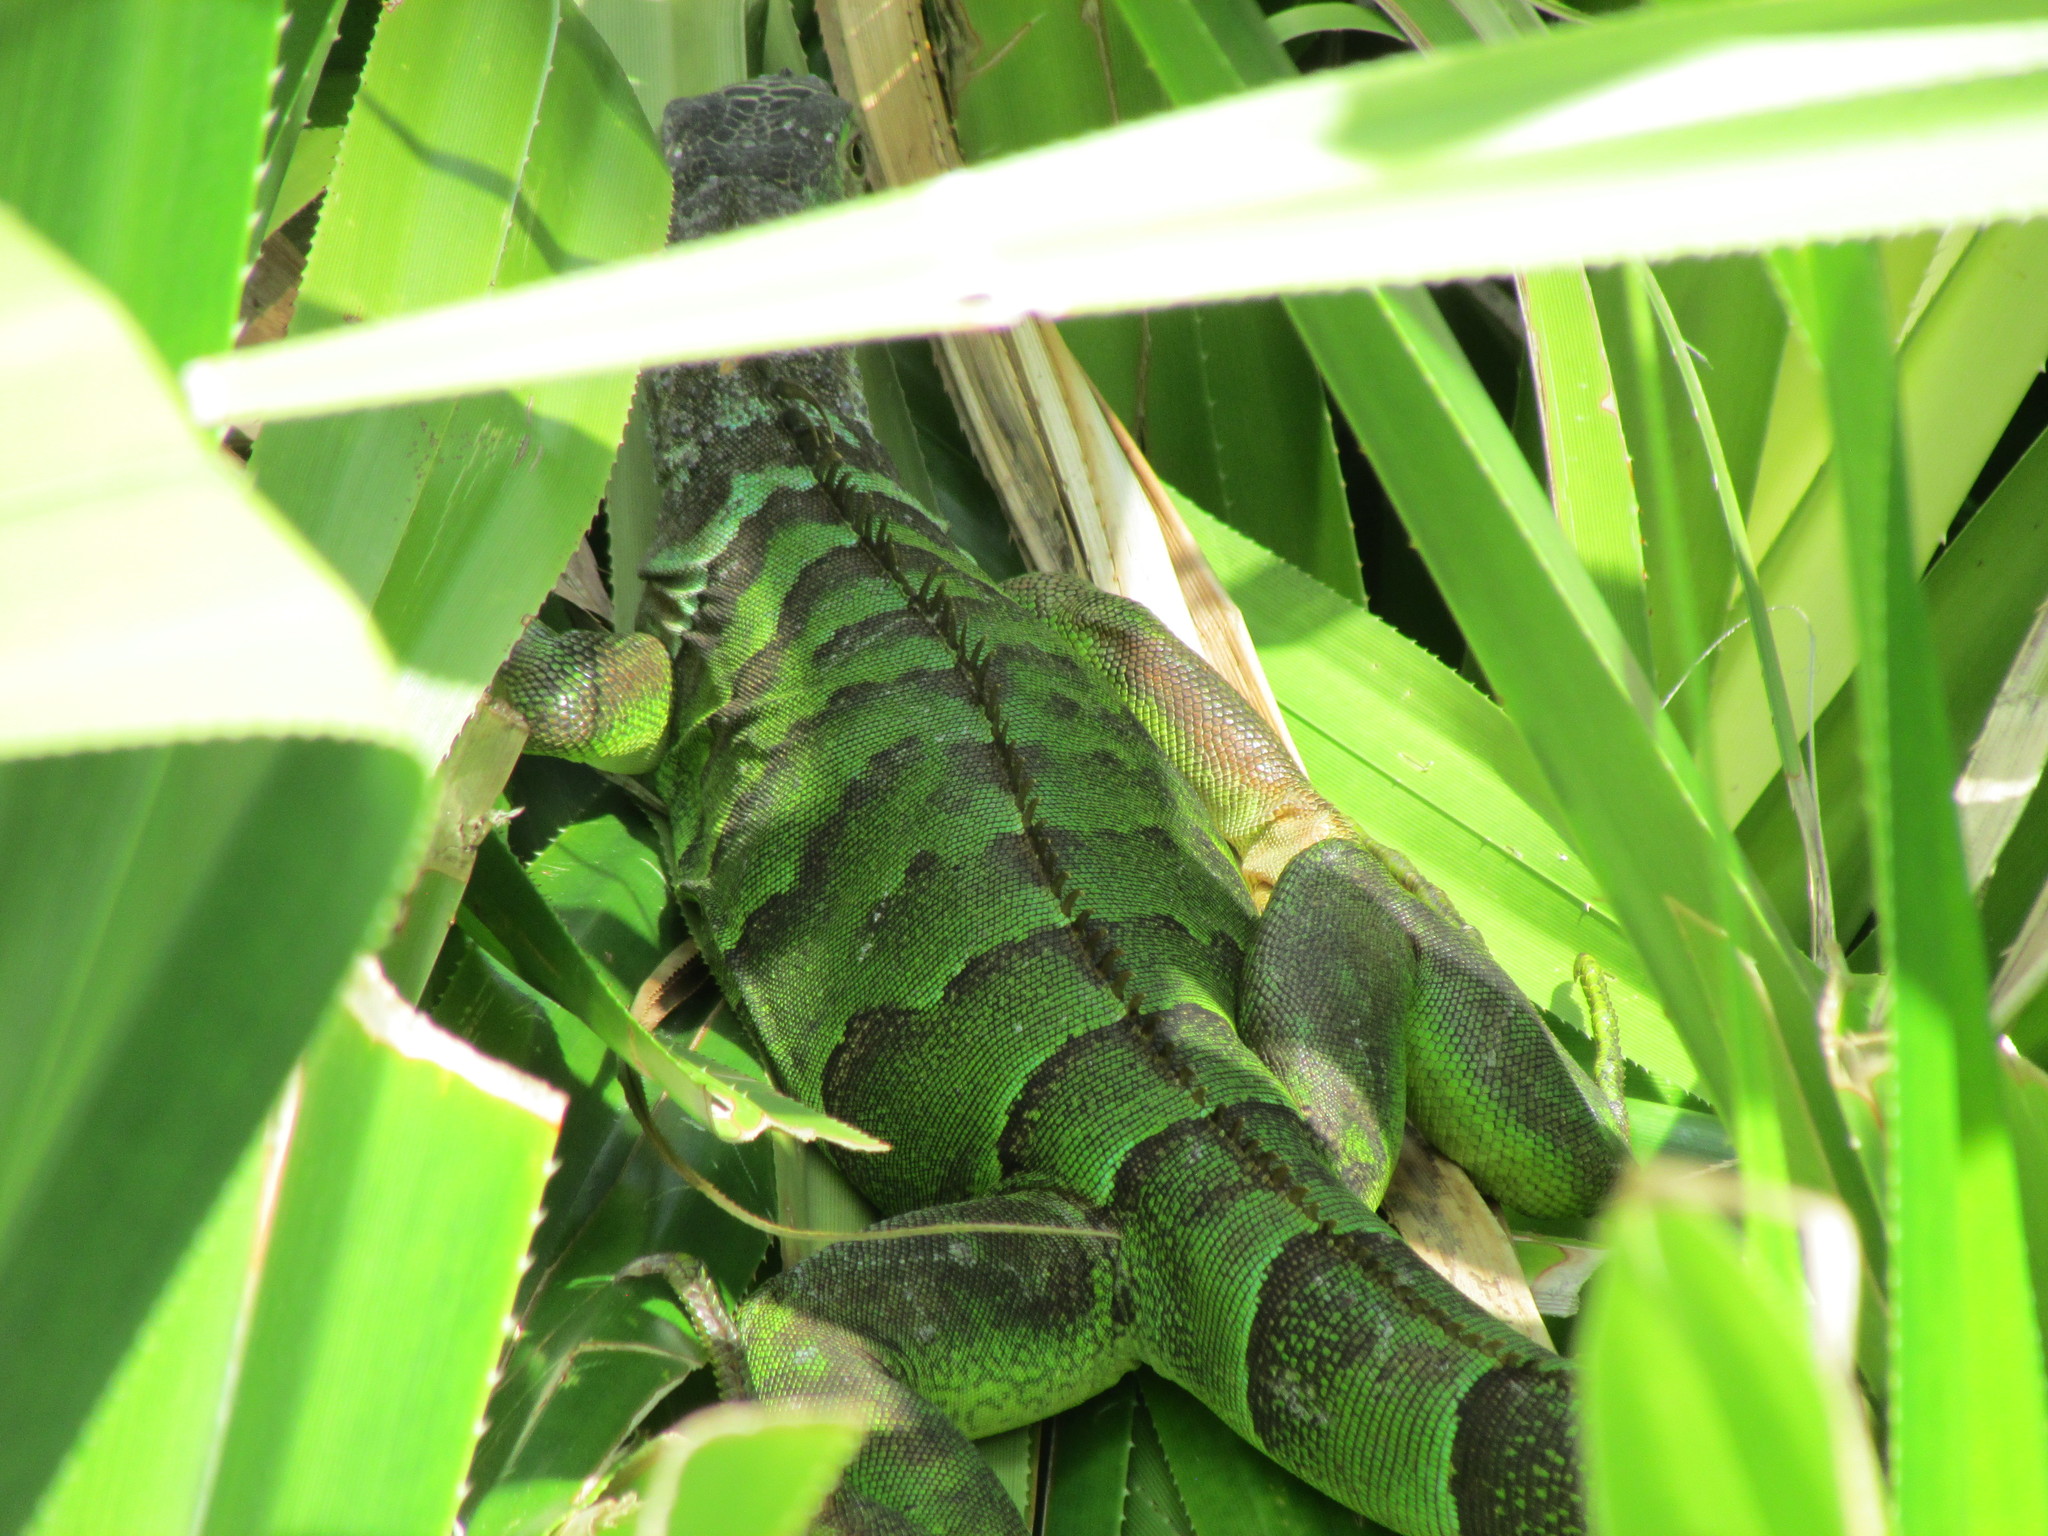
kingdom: Animalia
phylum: Chordata
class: Squamata
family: Iguanidae
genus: Iguana
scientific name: Iguana iguana
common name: Green iguana
